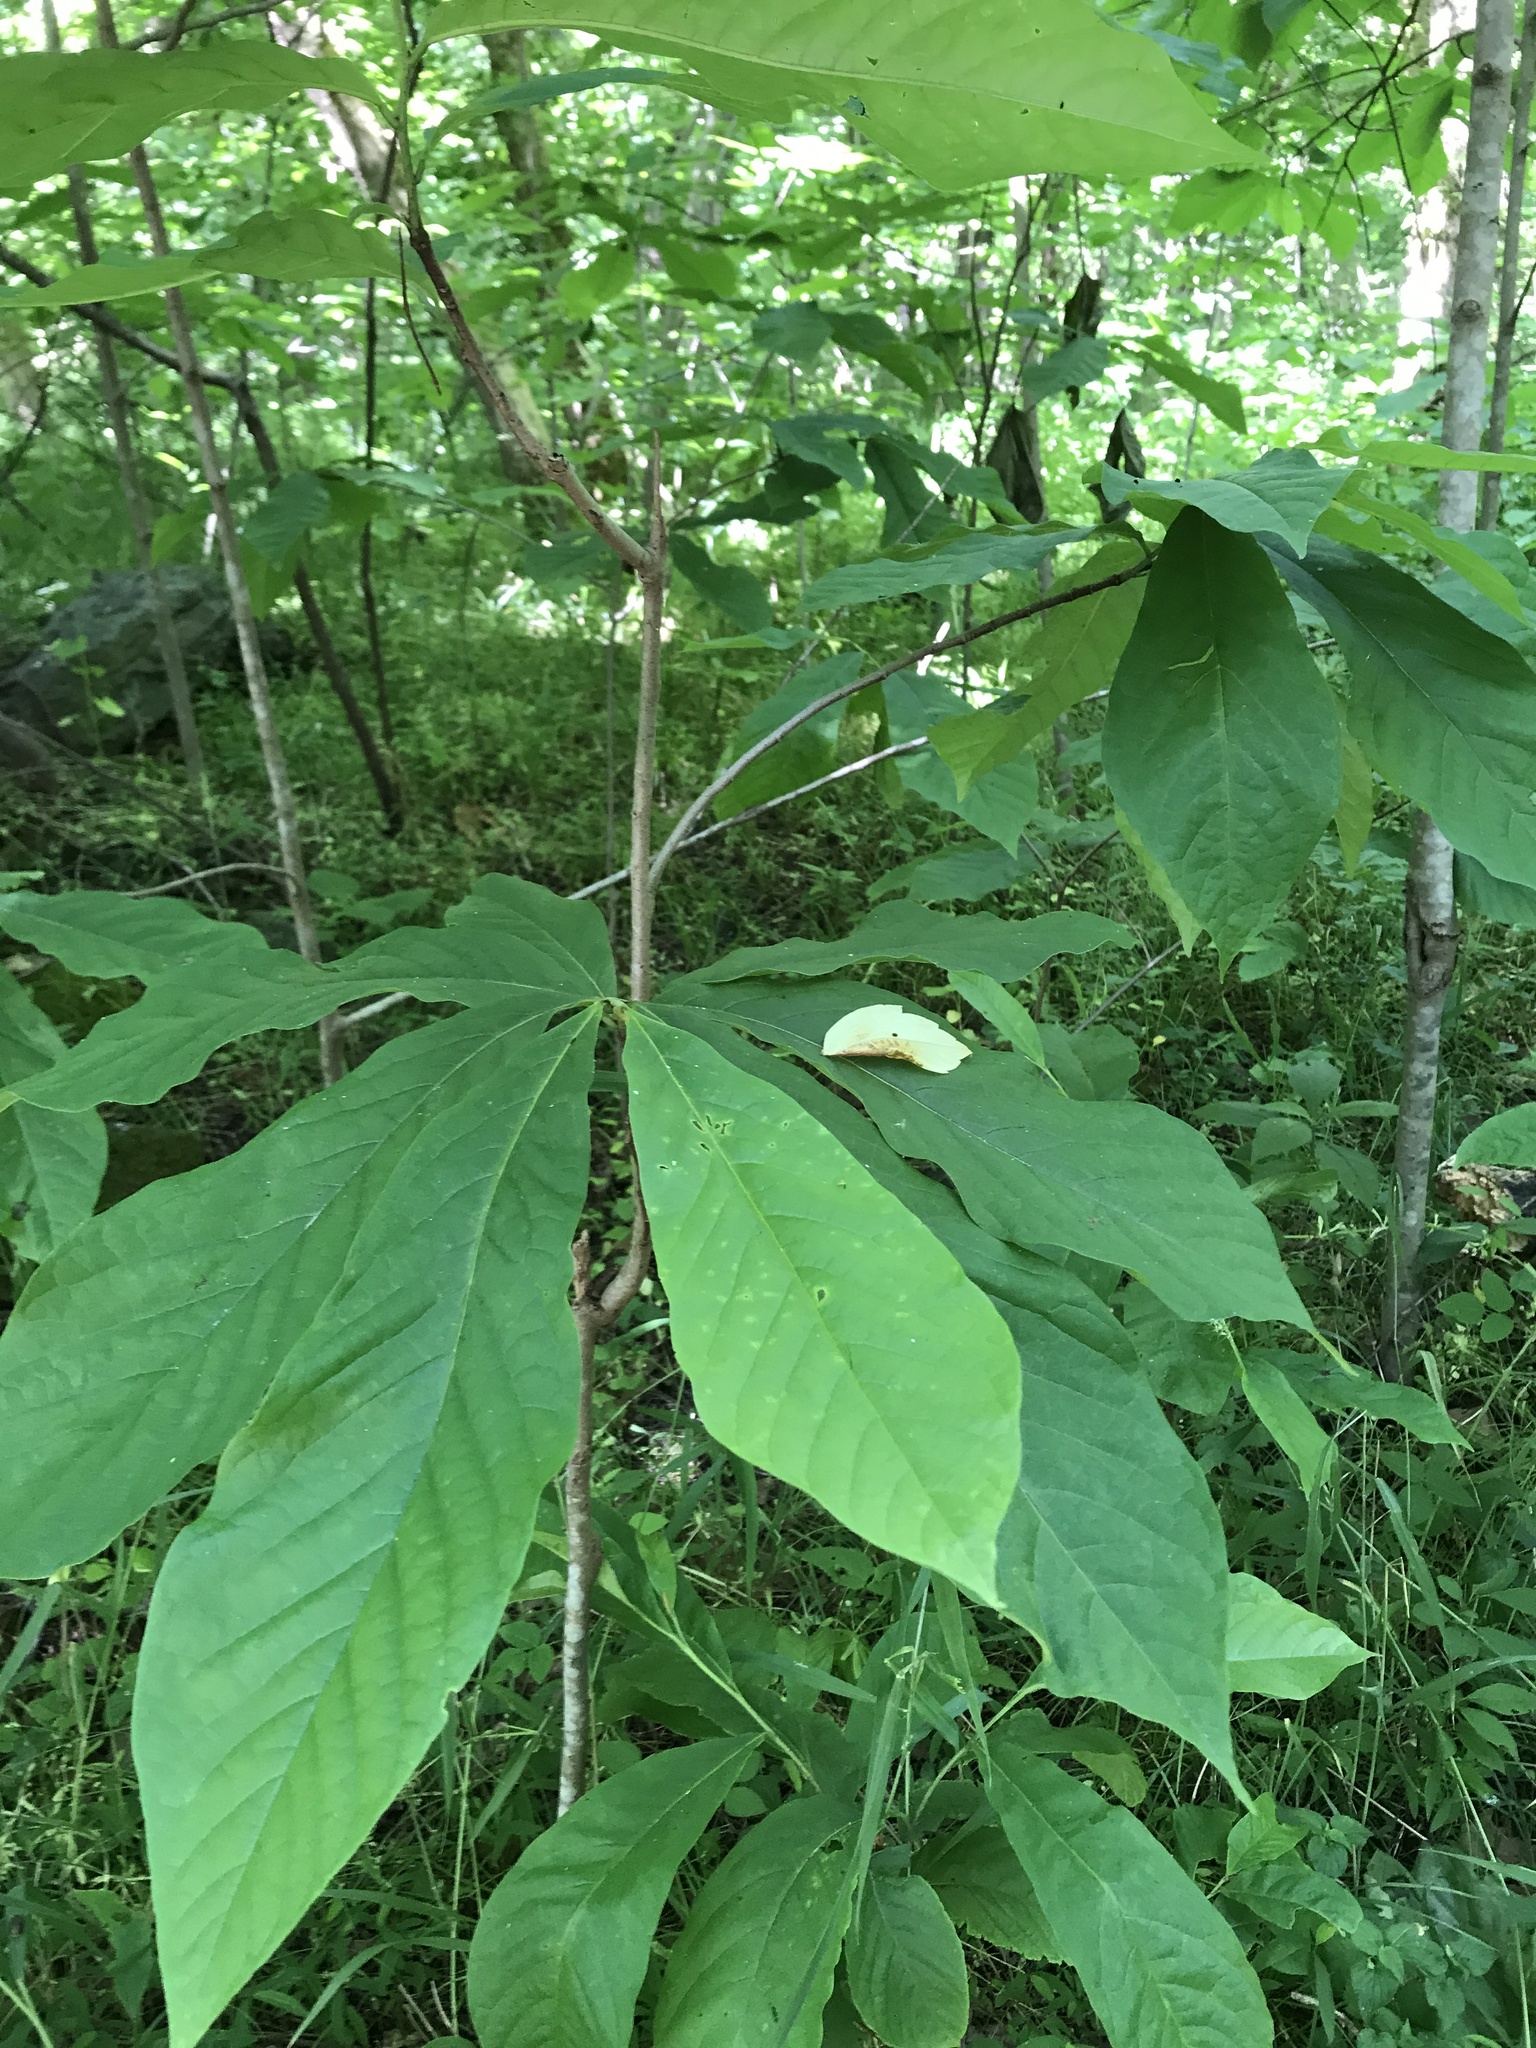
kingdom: Plantae
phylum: Tracheophyta
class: Magnoliopsida
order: Magnoliales
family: Annonaceae
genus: Asimina
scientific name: Asimina triloba
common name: Dog-banana
